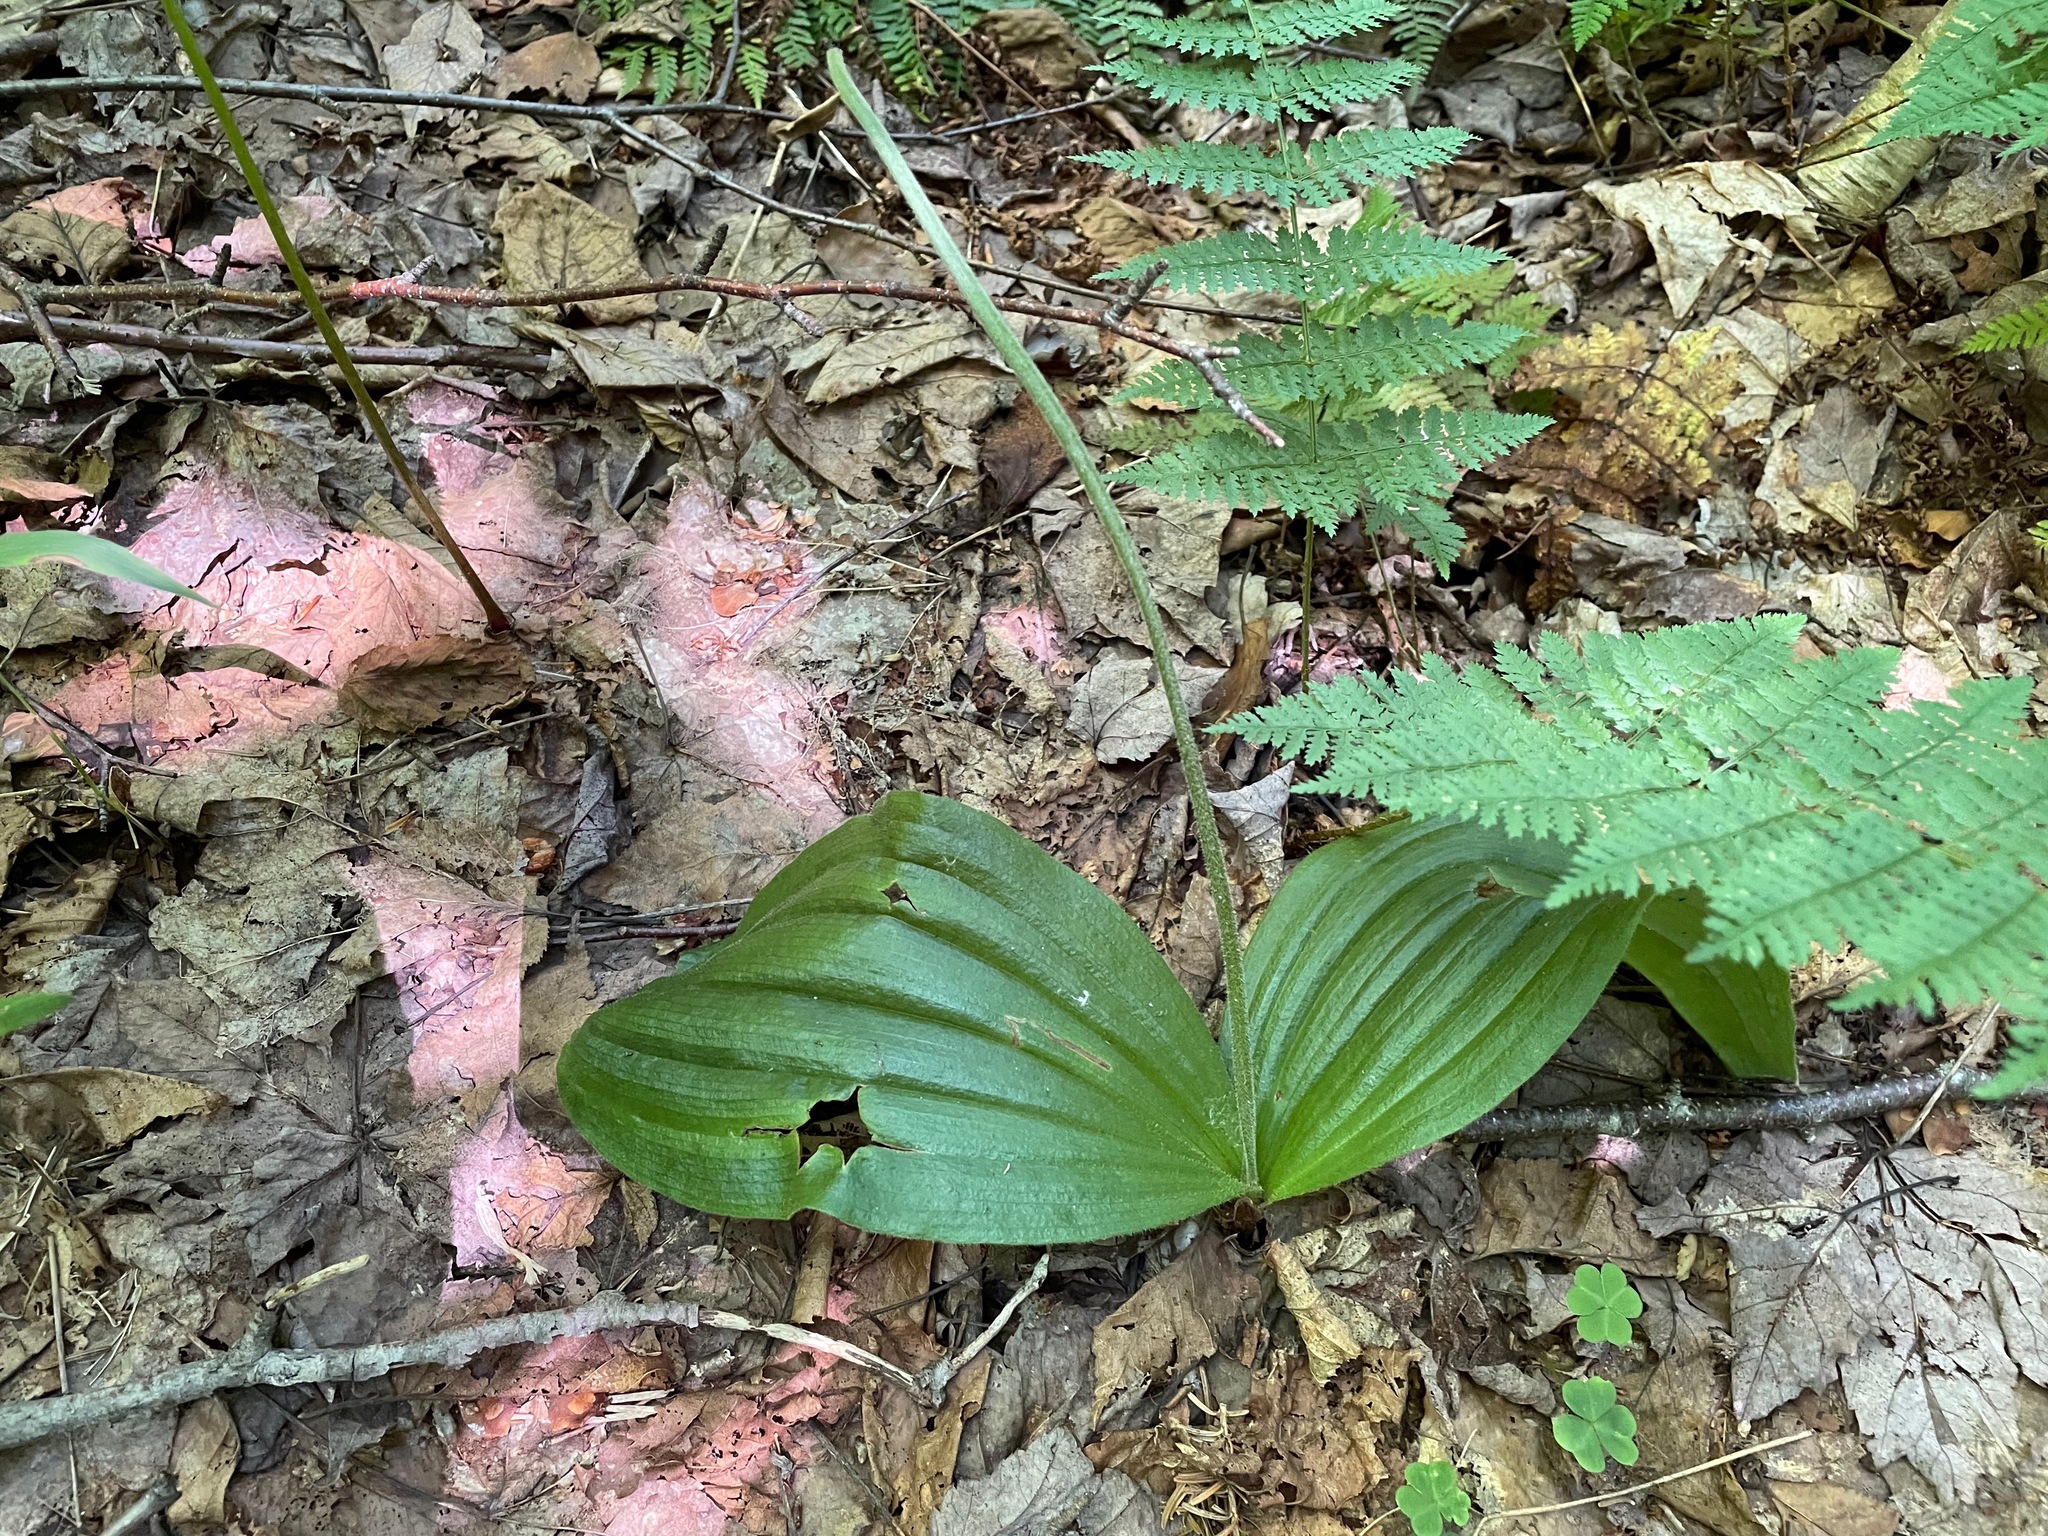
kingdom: Plantae
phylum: Tracheophyta
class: Liliopsida
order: Asparagales
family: Orchidaceae
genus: Cypripedium
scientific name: Cypripedium acaule
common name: Pink lady's-slipper
